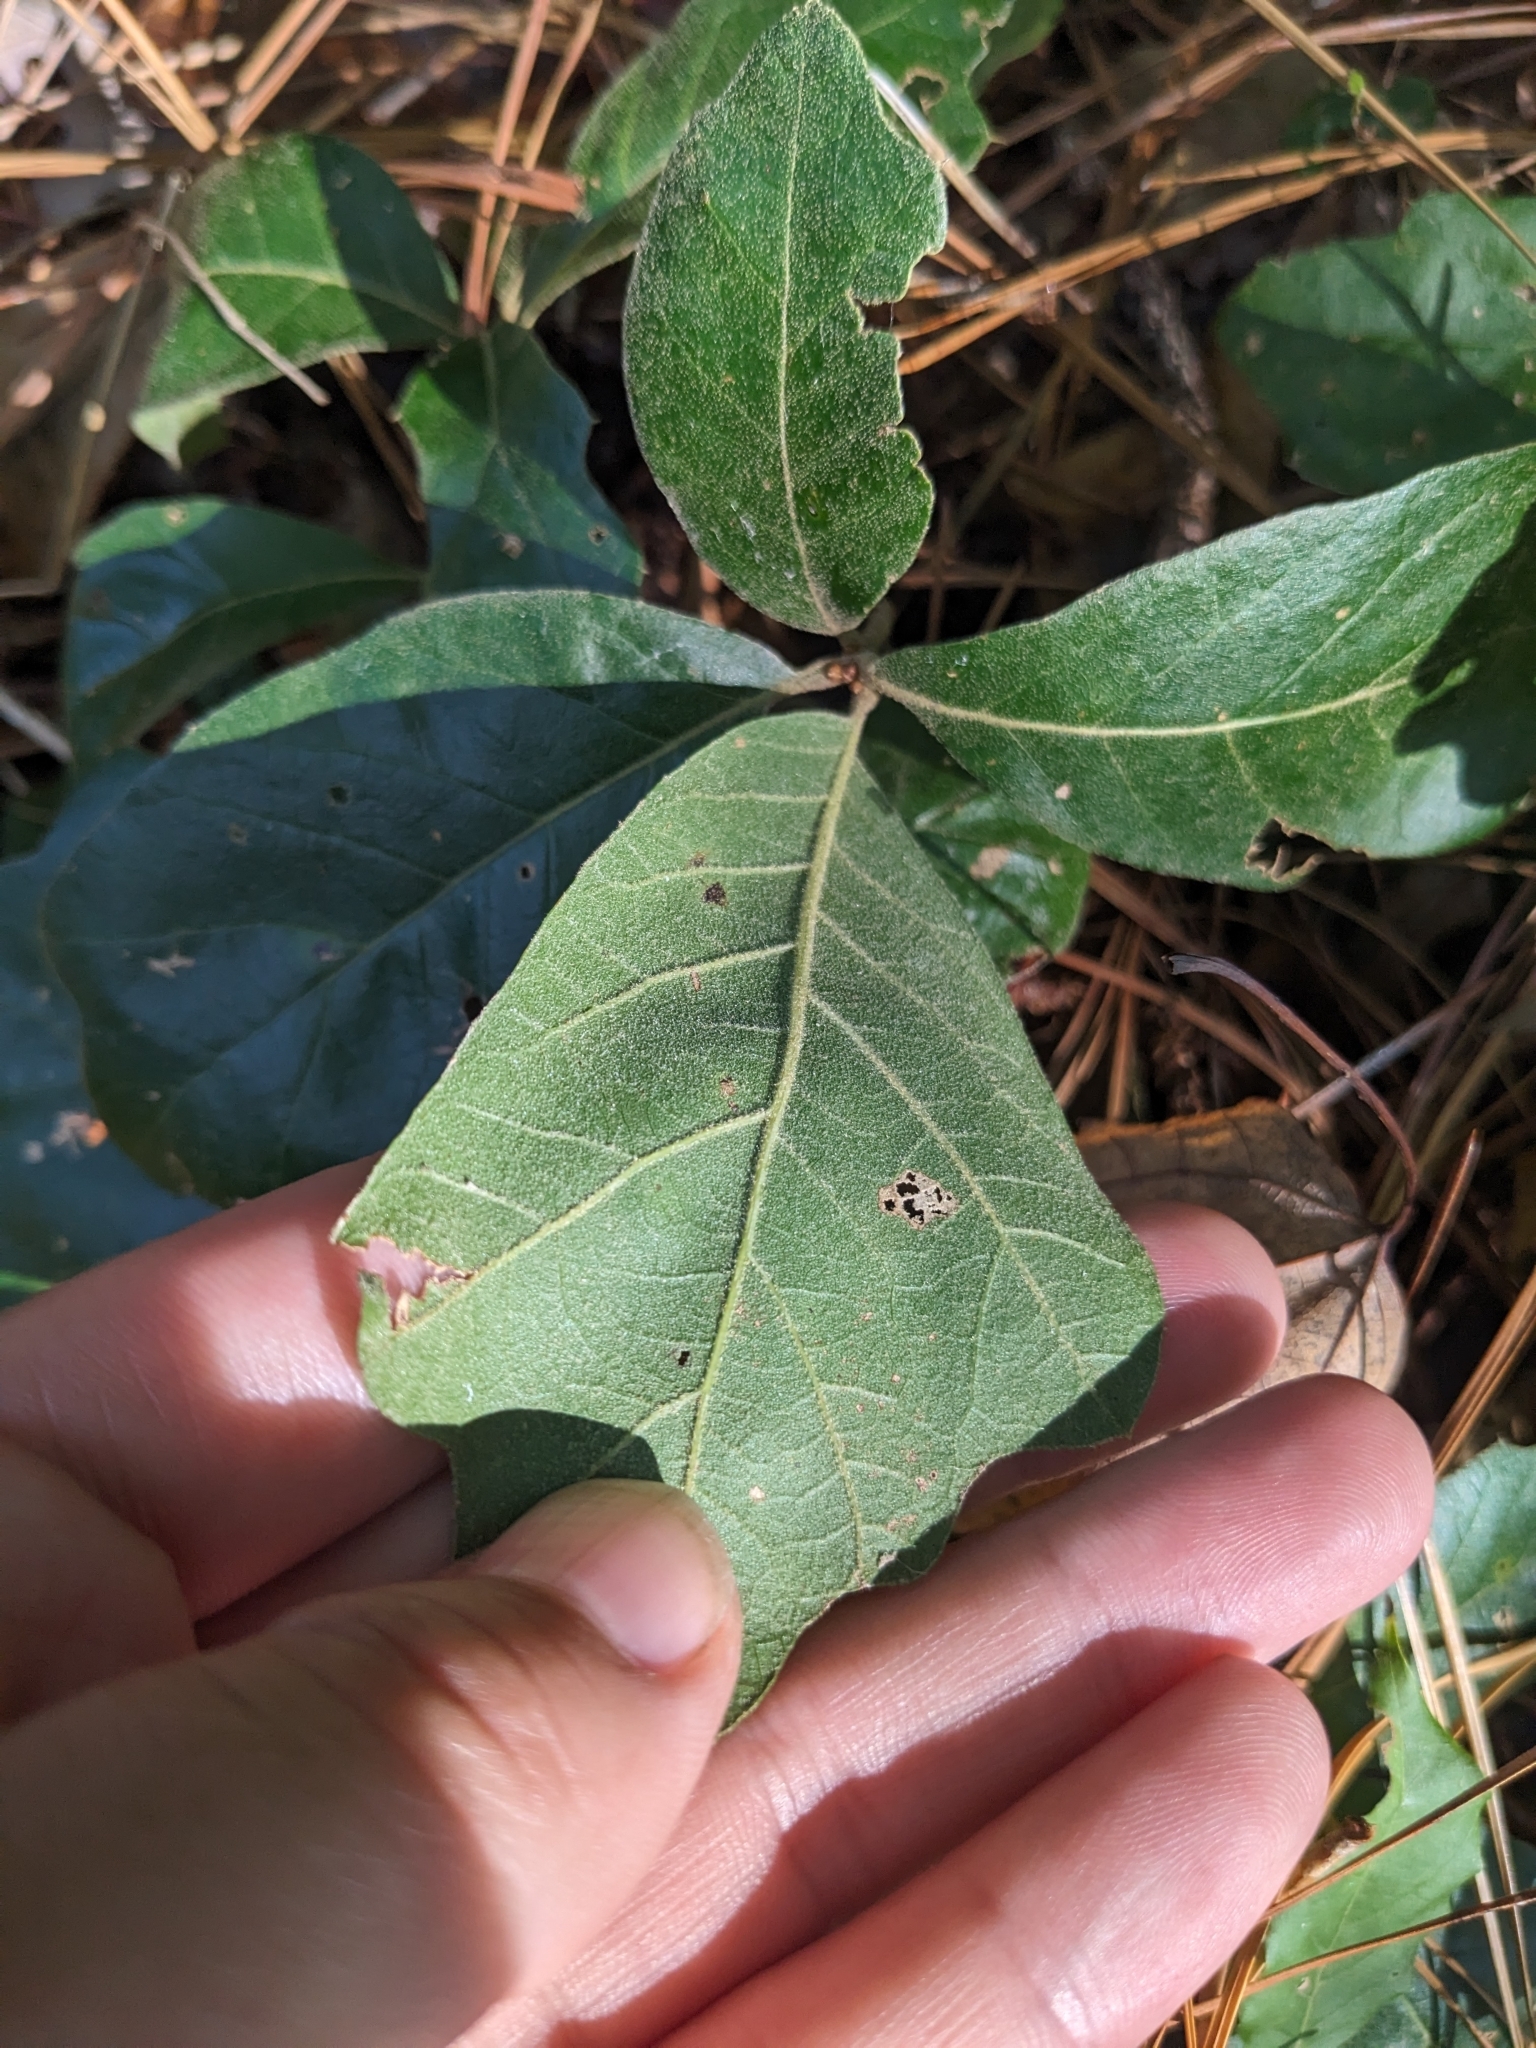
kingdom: Plantae
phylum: Tracheophyta
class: Magnoliopsida
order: Fagales
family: Fagaceae
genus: Quercus
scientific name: Quercus falcata
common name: Southern red oak
